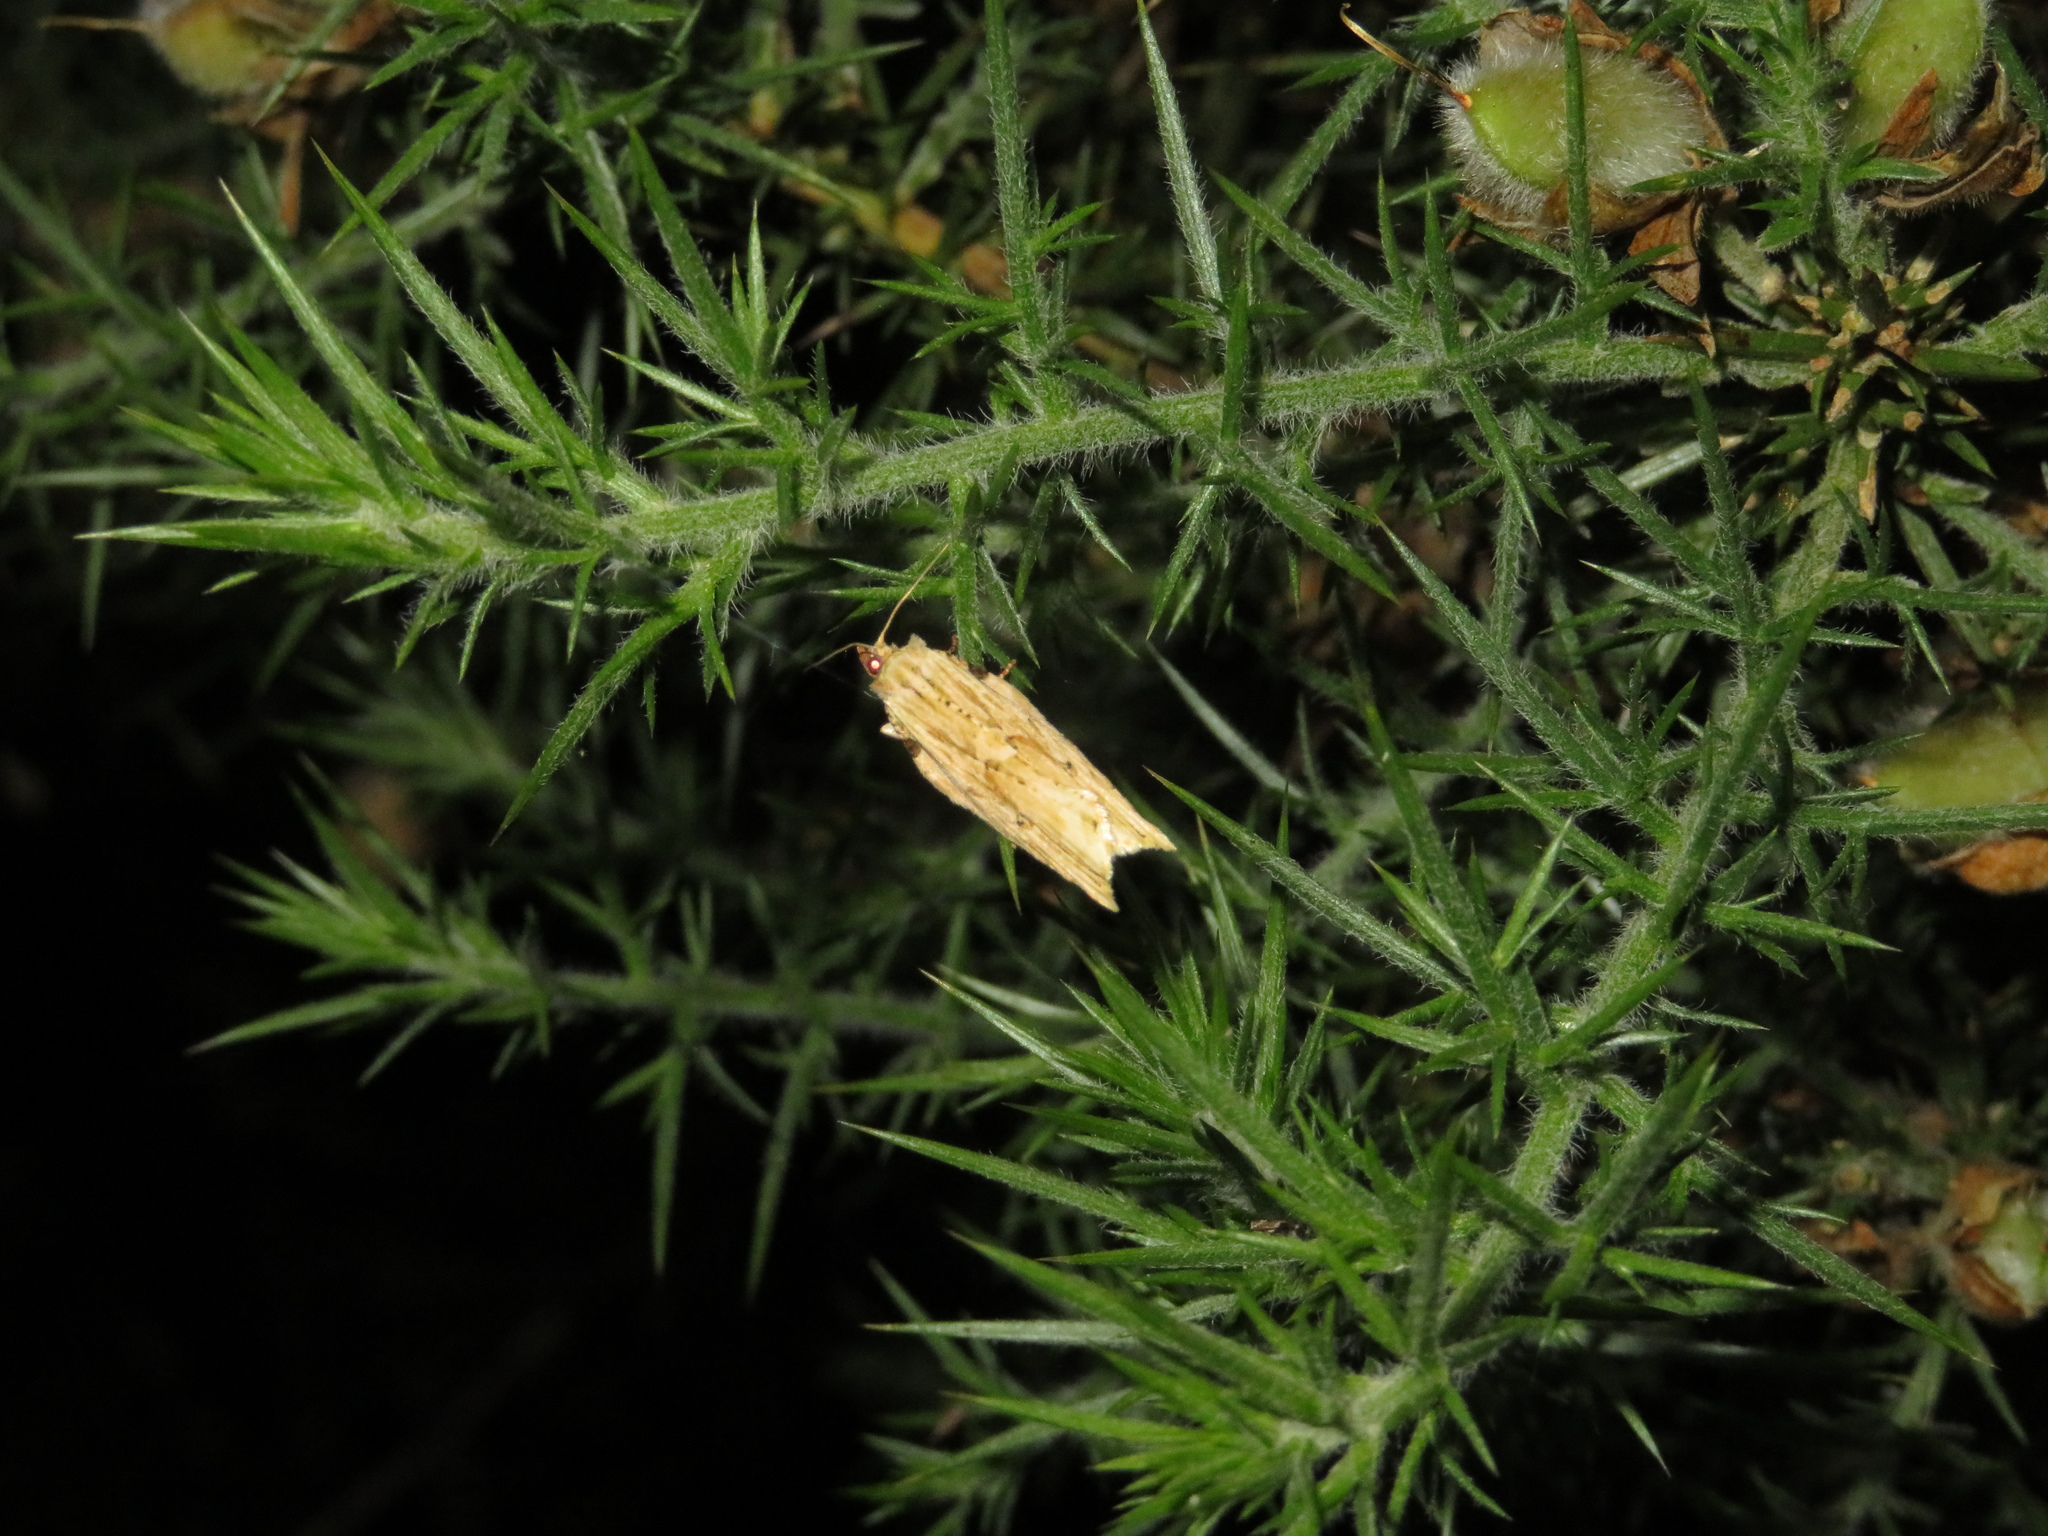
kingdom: Animalia
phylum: Arthropoda
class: Insecta
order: Lepidoptera
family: Tortricidae
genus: Epalxiphora
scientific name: Epalxiphora axenana
